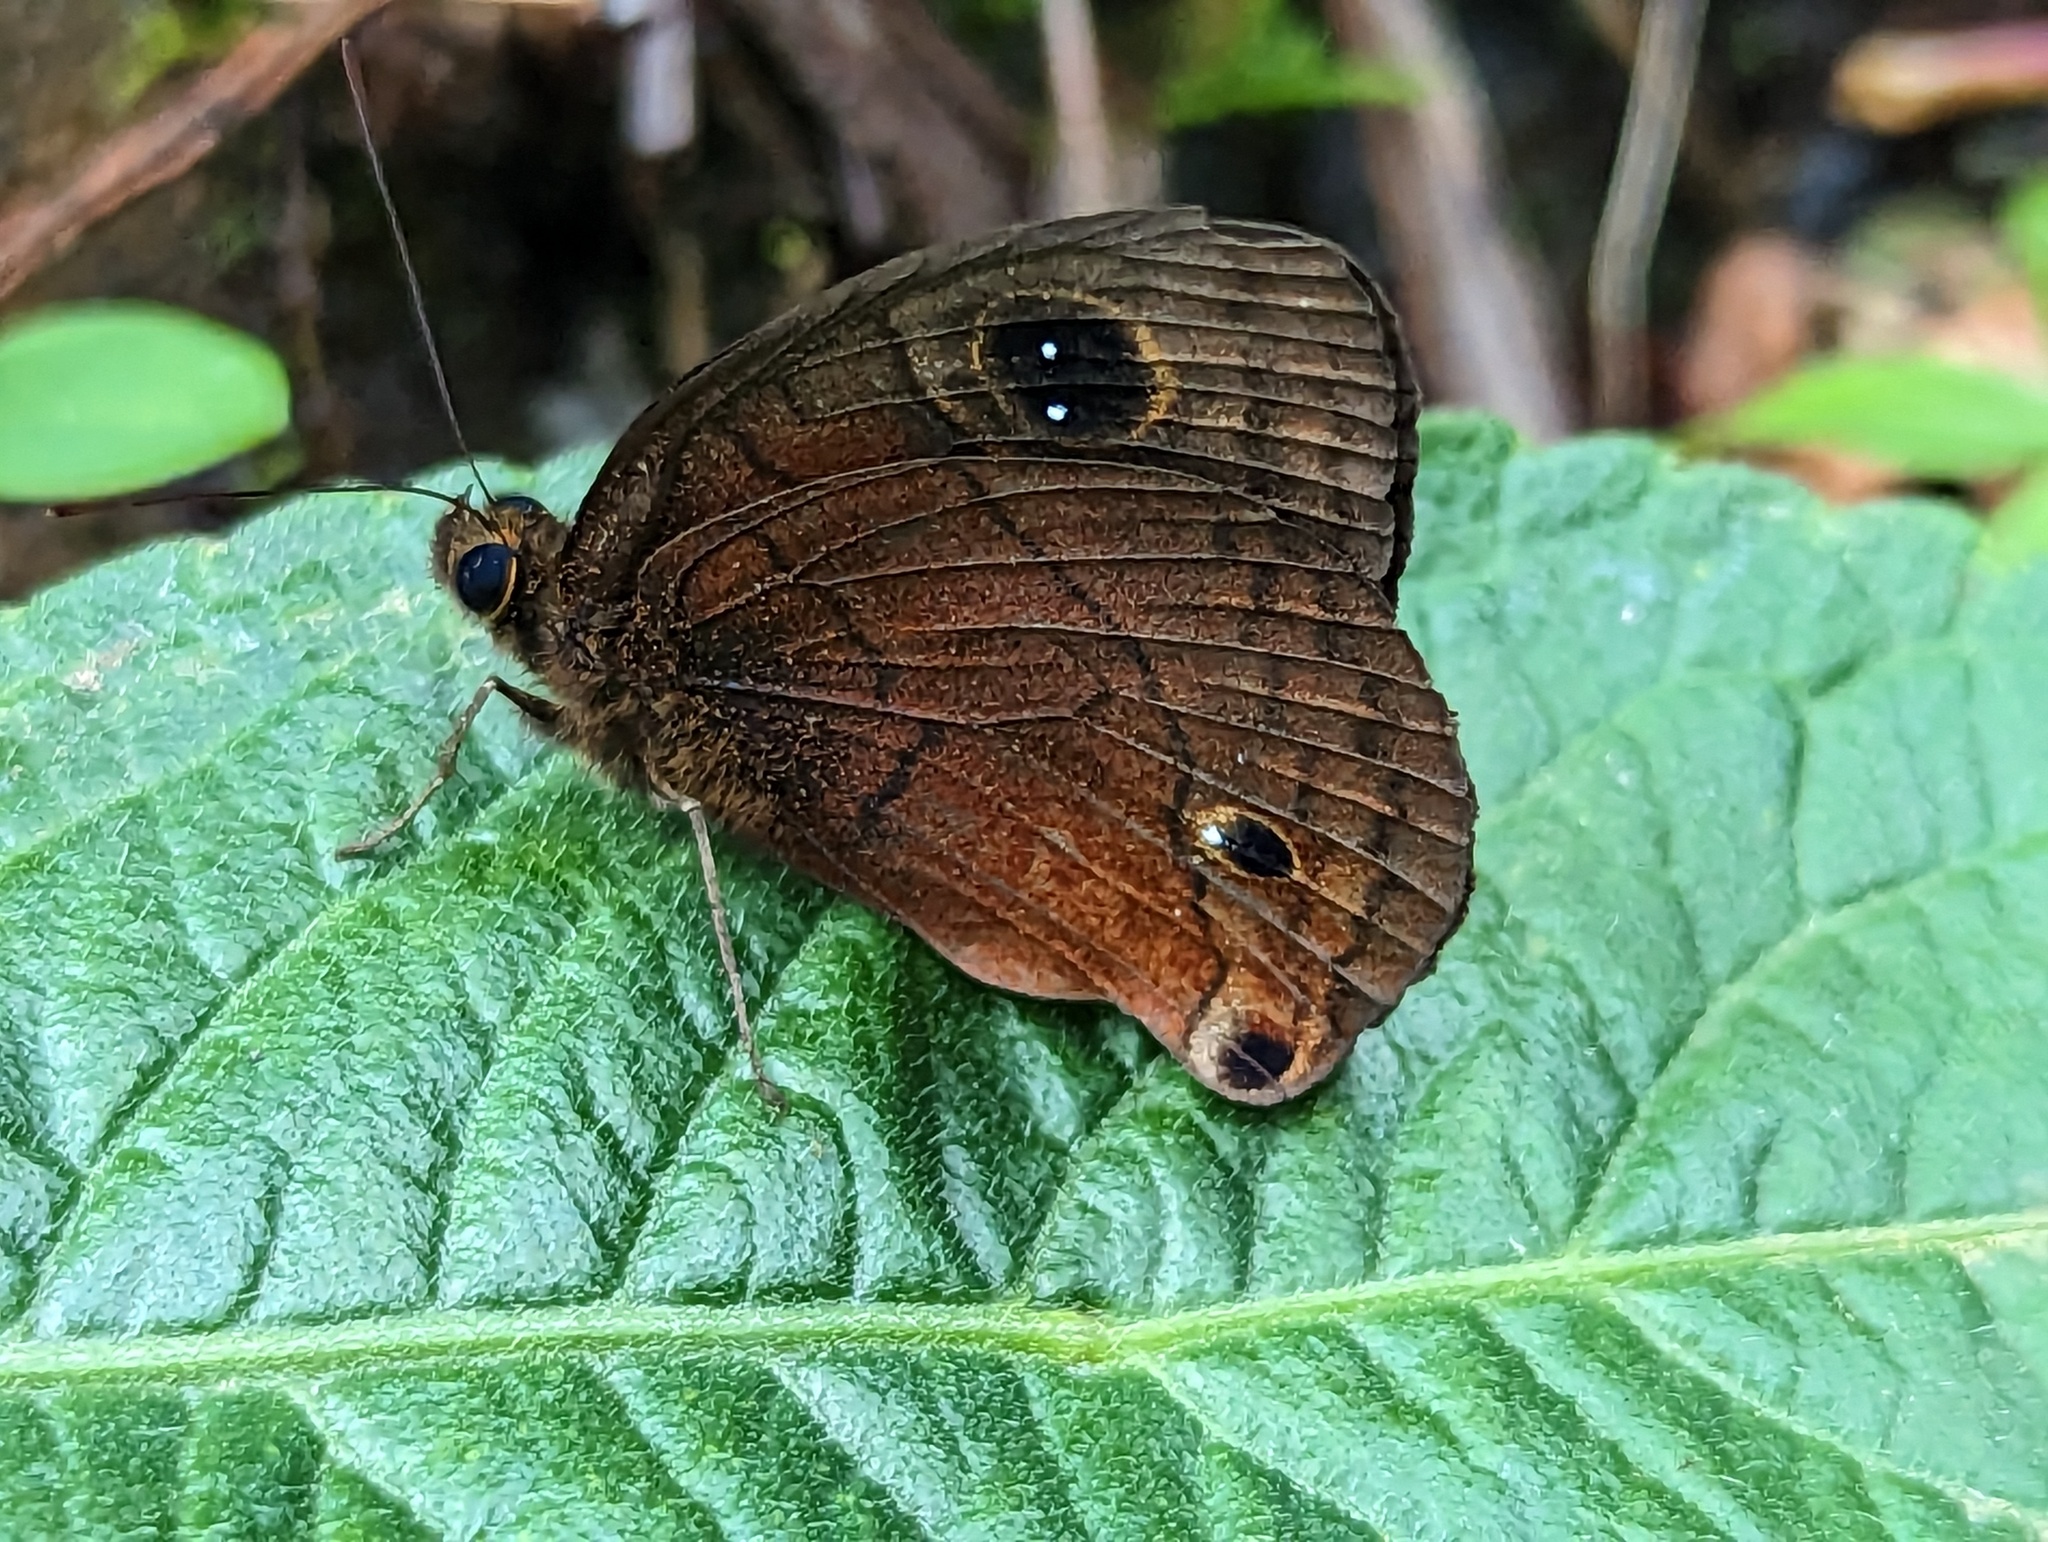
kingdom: Animalia
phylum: Arthropoda
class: Insecta
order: Lepidoptera
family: Nymphalidae
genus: Calisto
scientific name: Calisto nubila
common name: Puerto rican calisto
